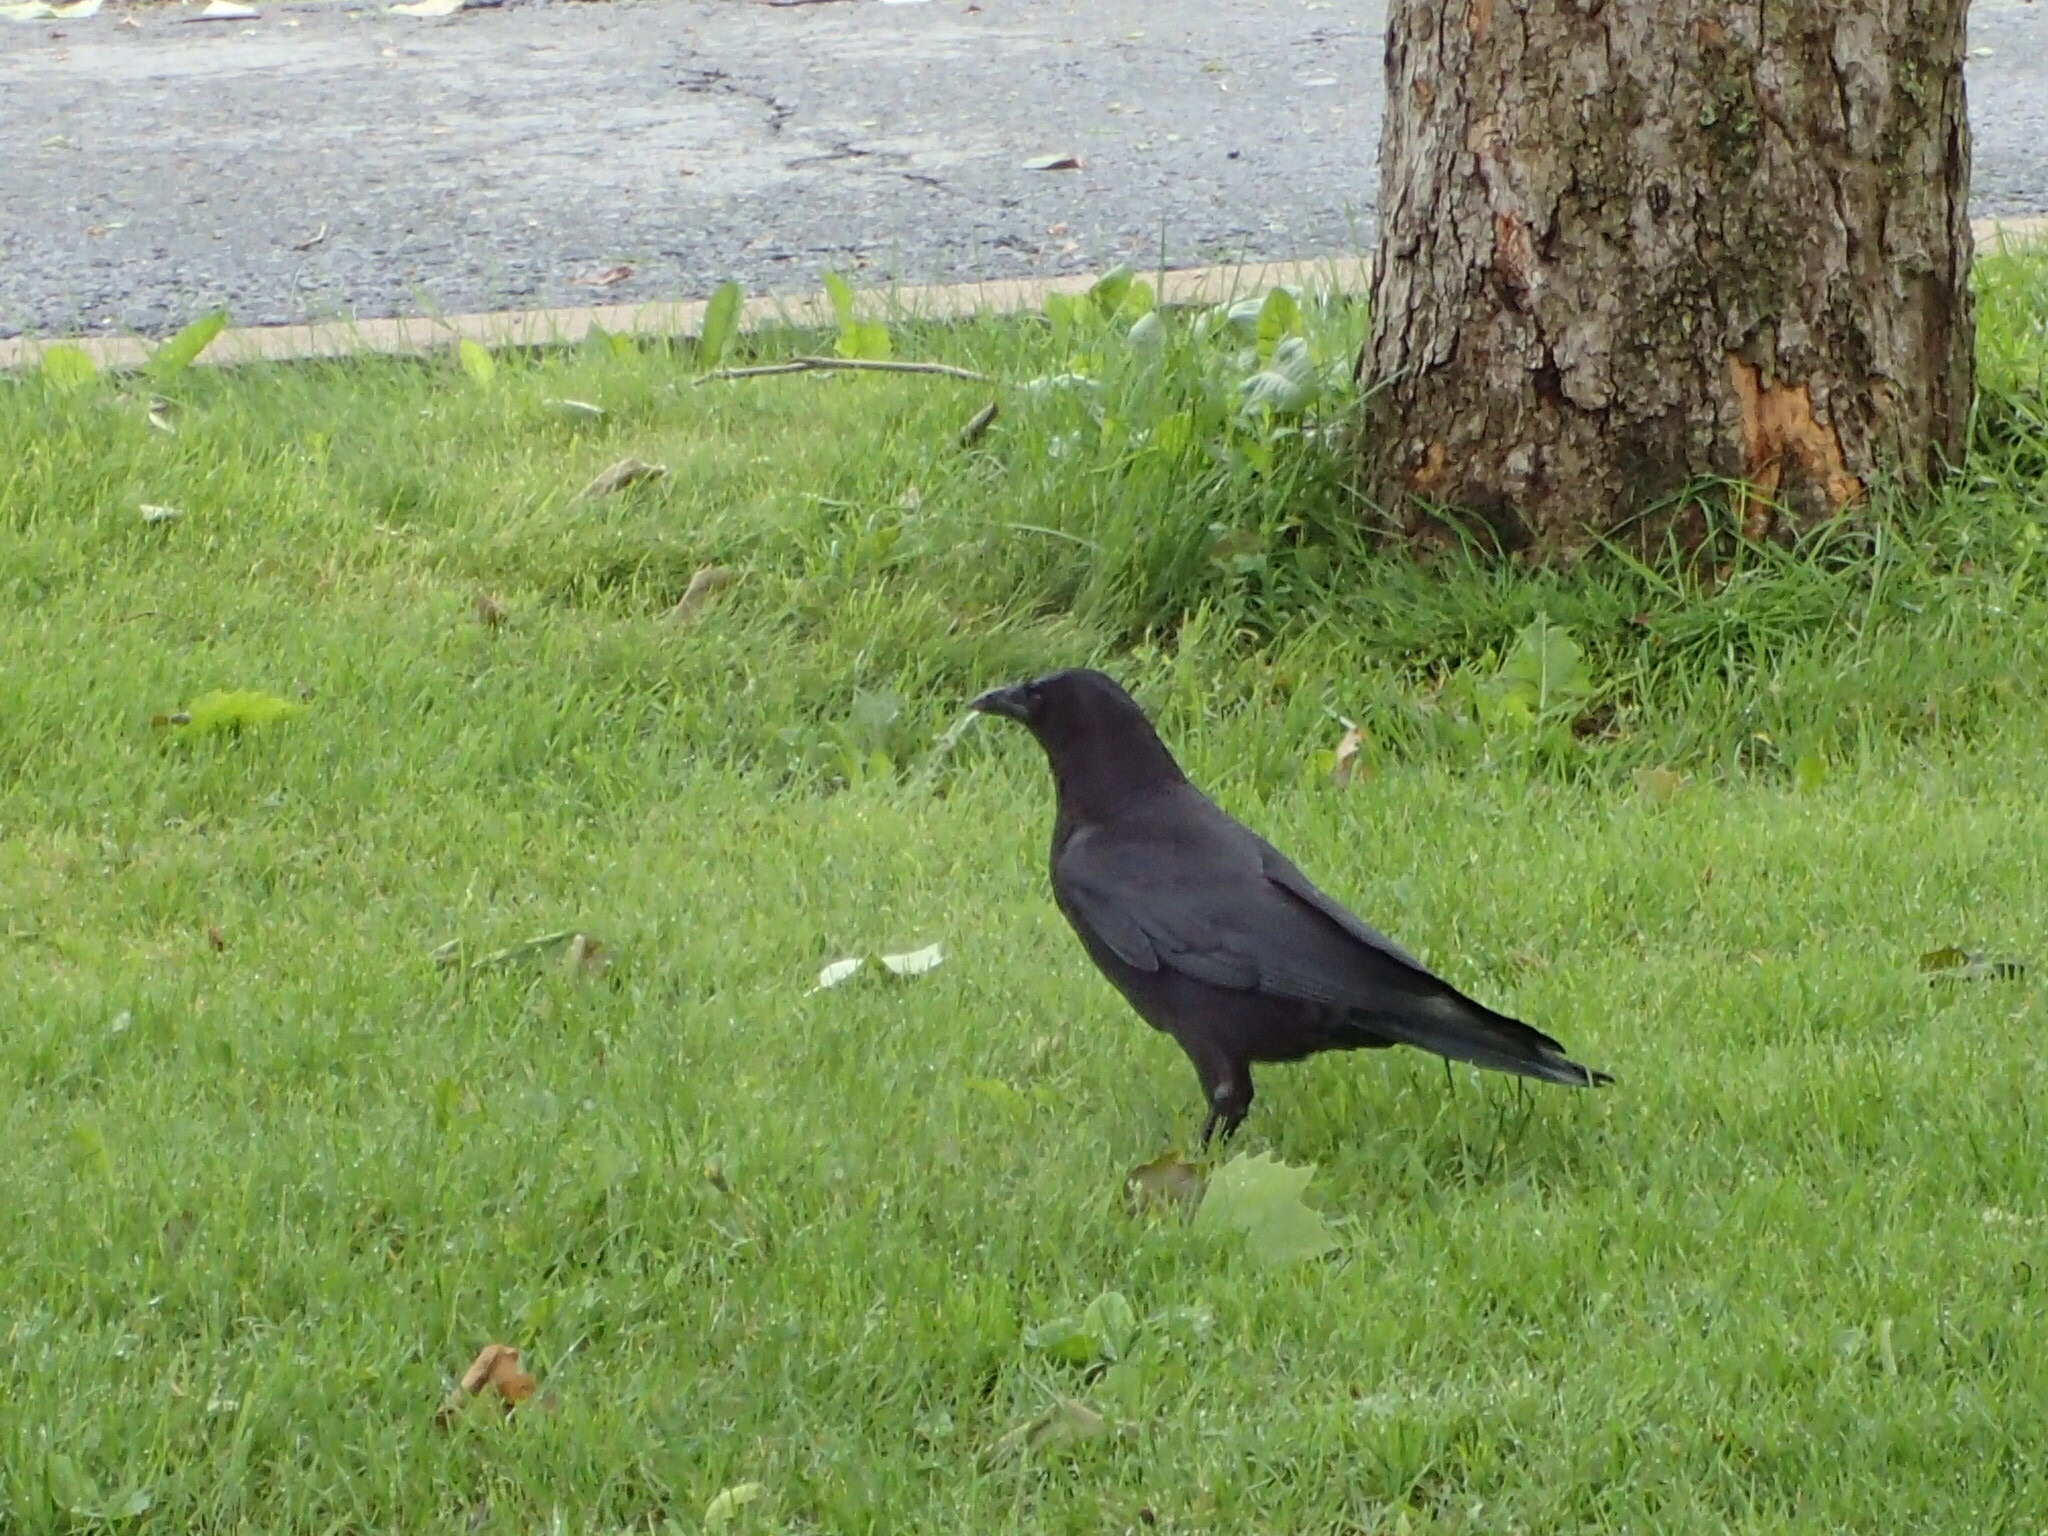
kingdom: Animalia
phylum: Chordata
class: Aves
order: Passeriformes
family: Corvidae
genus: Corvus
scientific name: Corvus brachyrhynchos
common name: American crow
